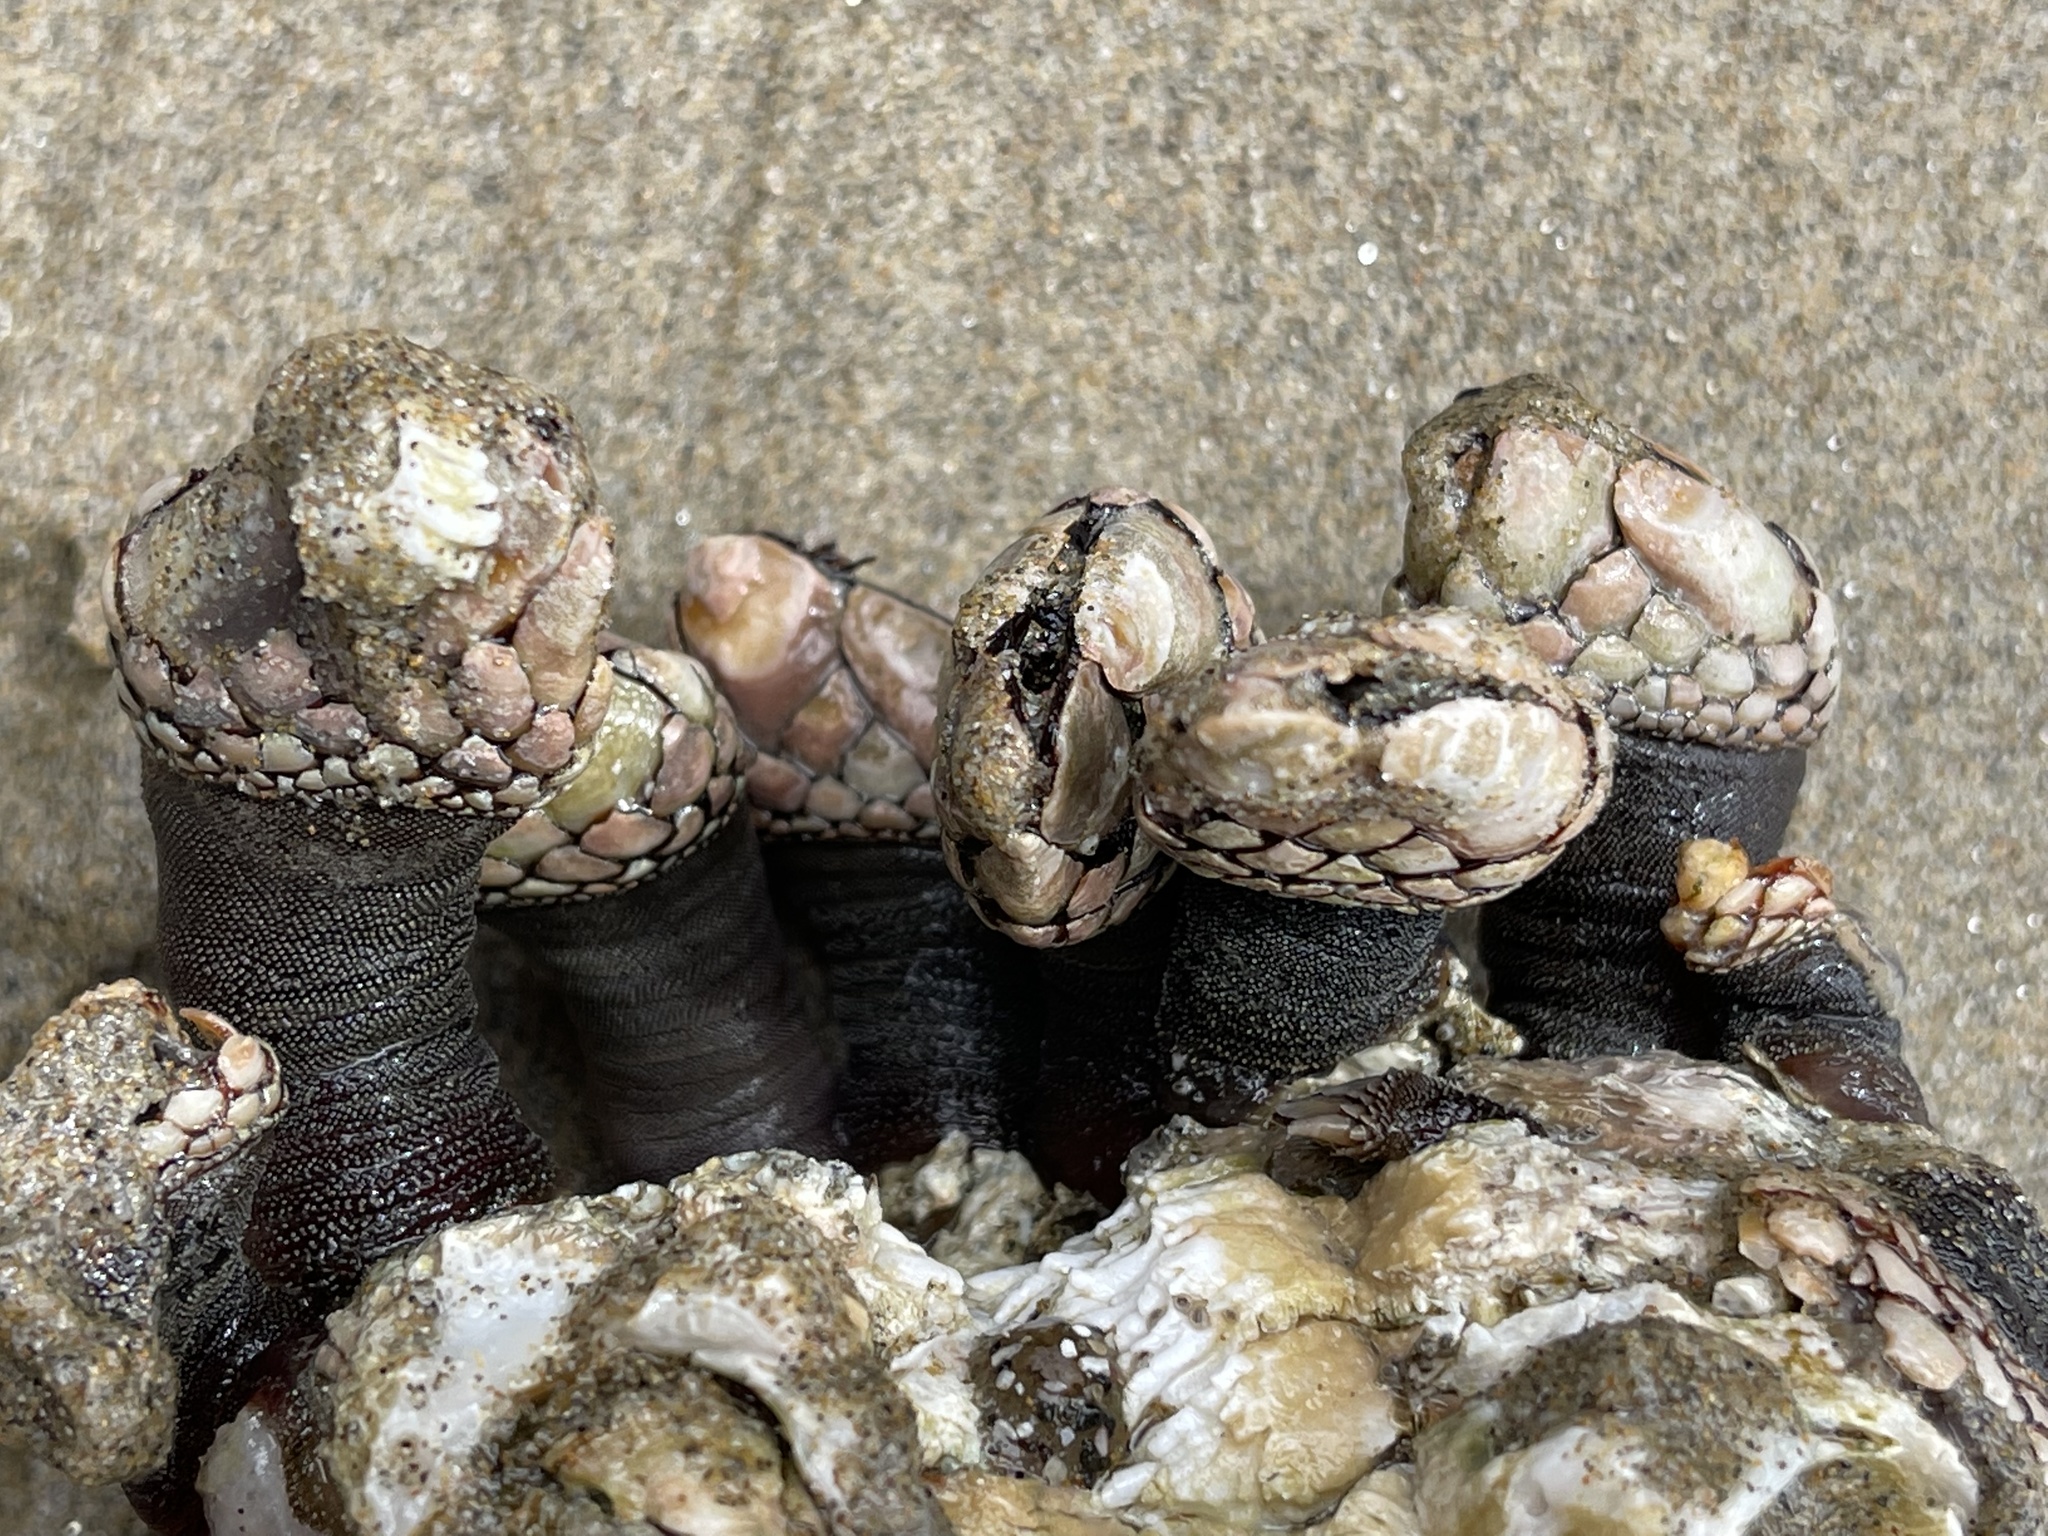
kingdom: Animalia
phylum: Arthropoda
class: Maxillopoda
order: Pedunculata
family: Pollicipedidae
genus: Pollicipes
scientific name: Pollicipes polymerus
